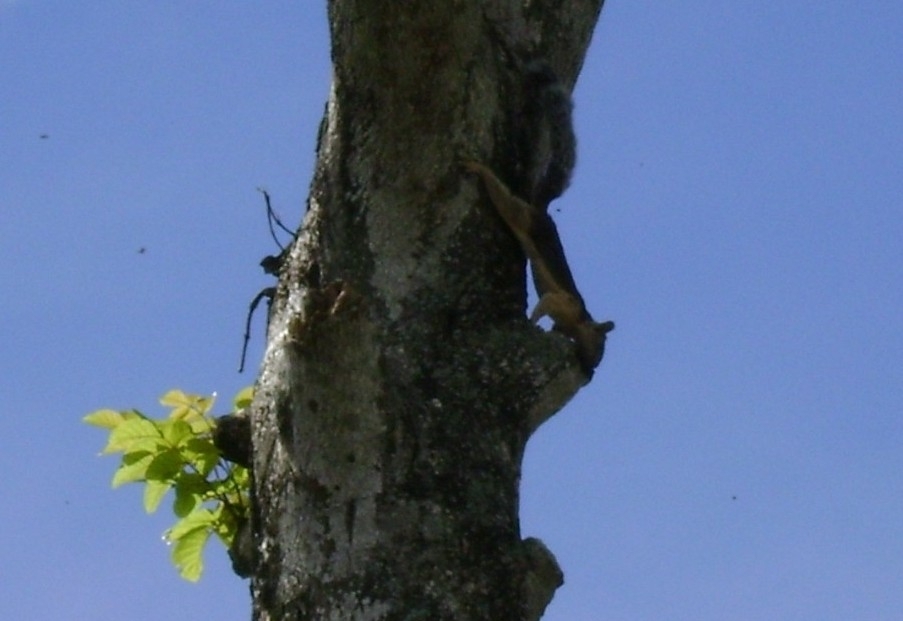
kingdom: Animalia
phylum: Chordata
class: Mammalia
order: Rodentia
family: Sciuridae
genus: Sciurus
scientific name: Sciurus variegatoides
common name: Variegated squirrel
